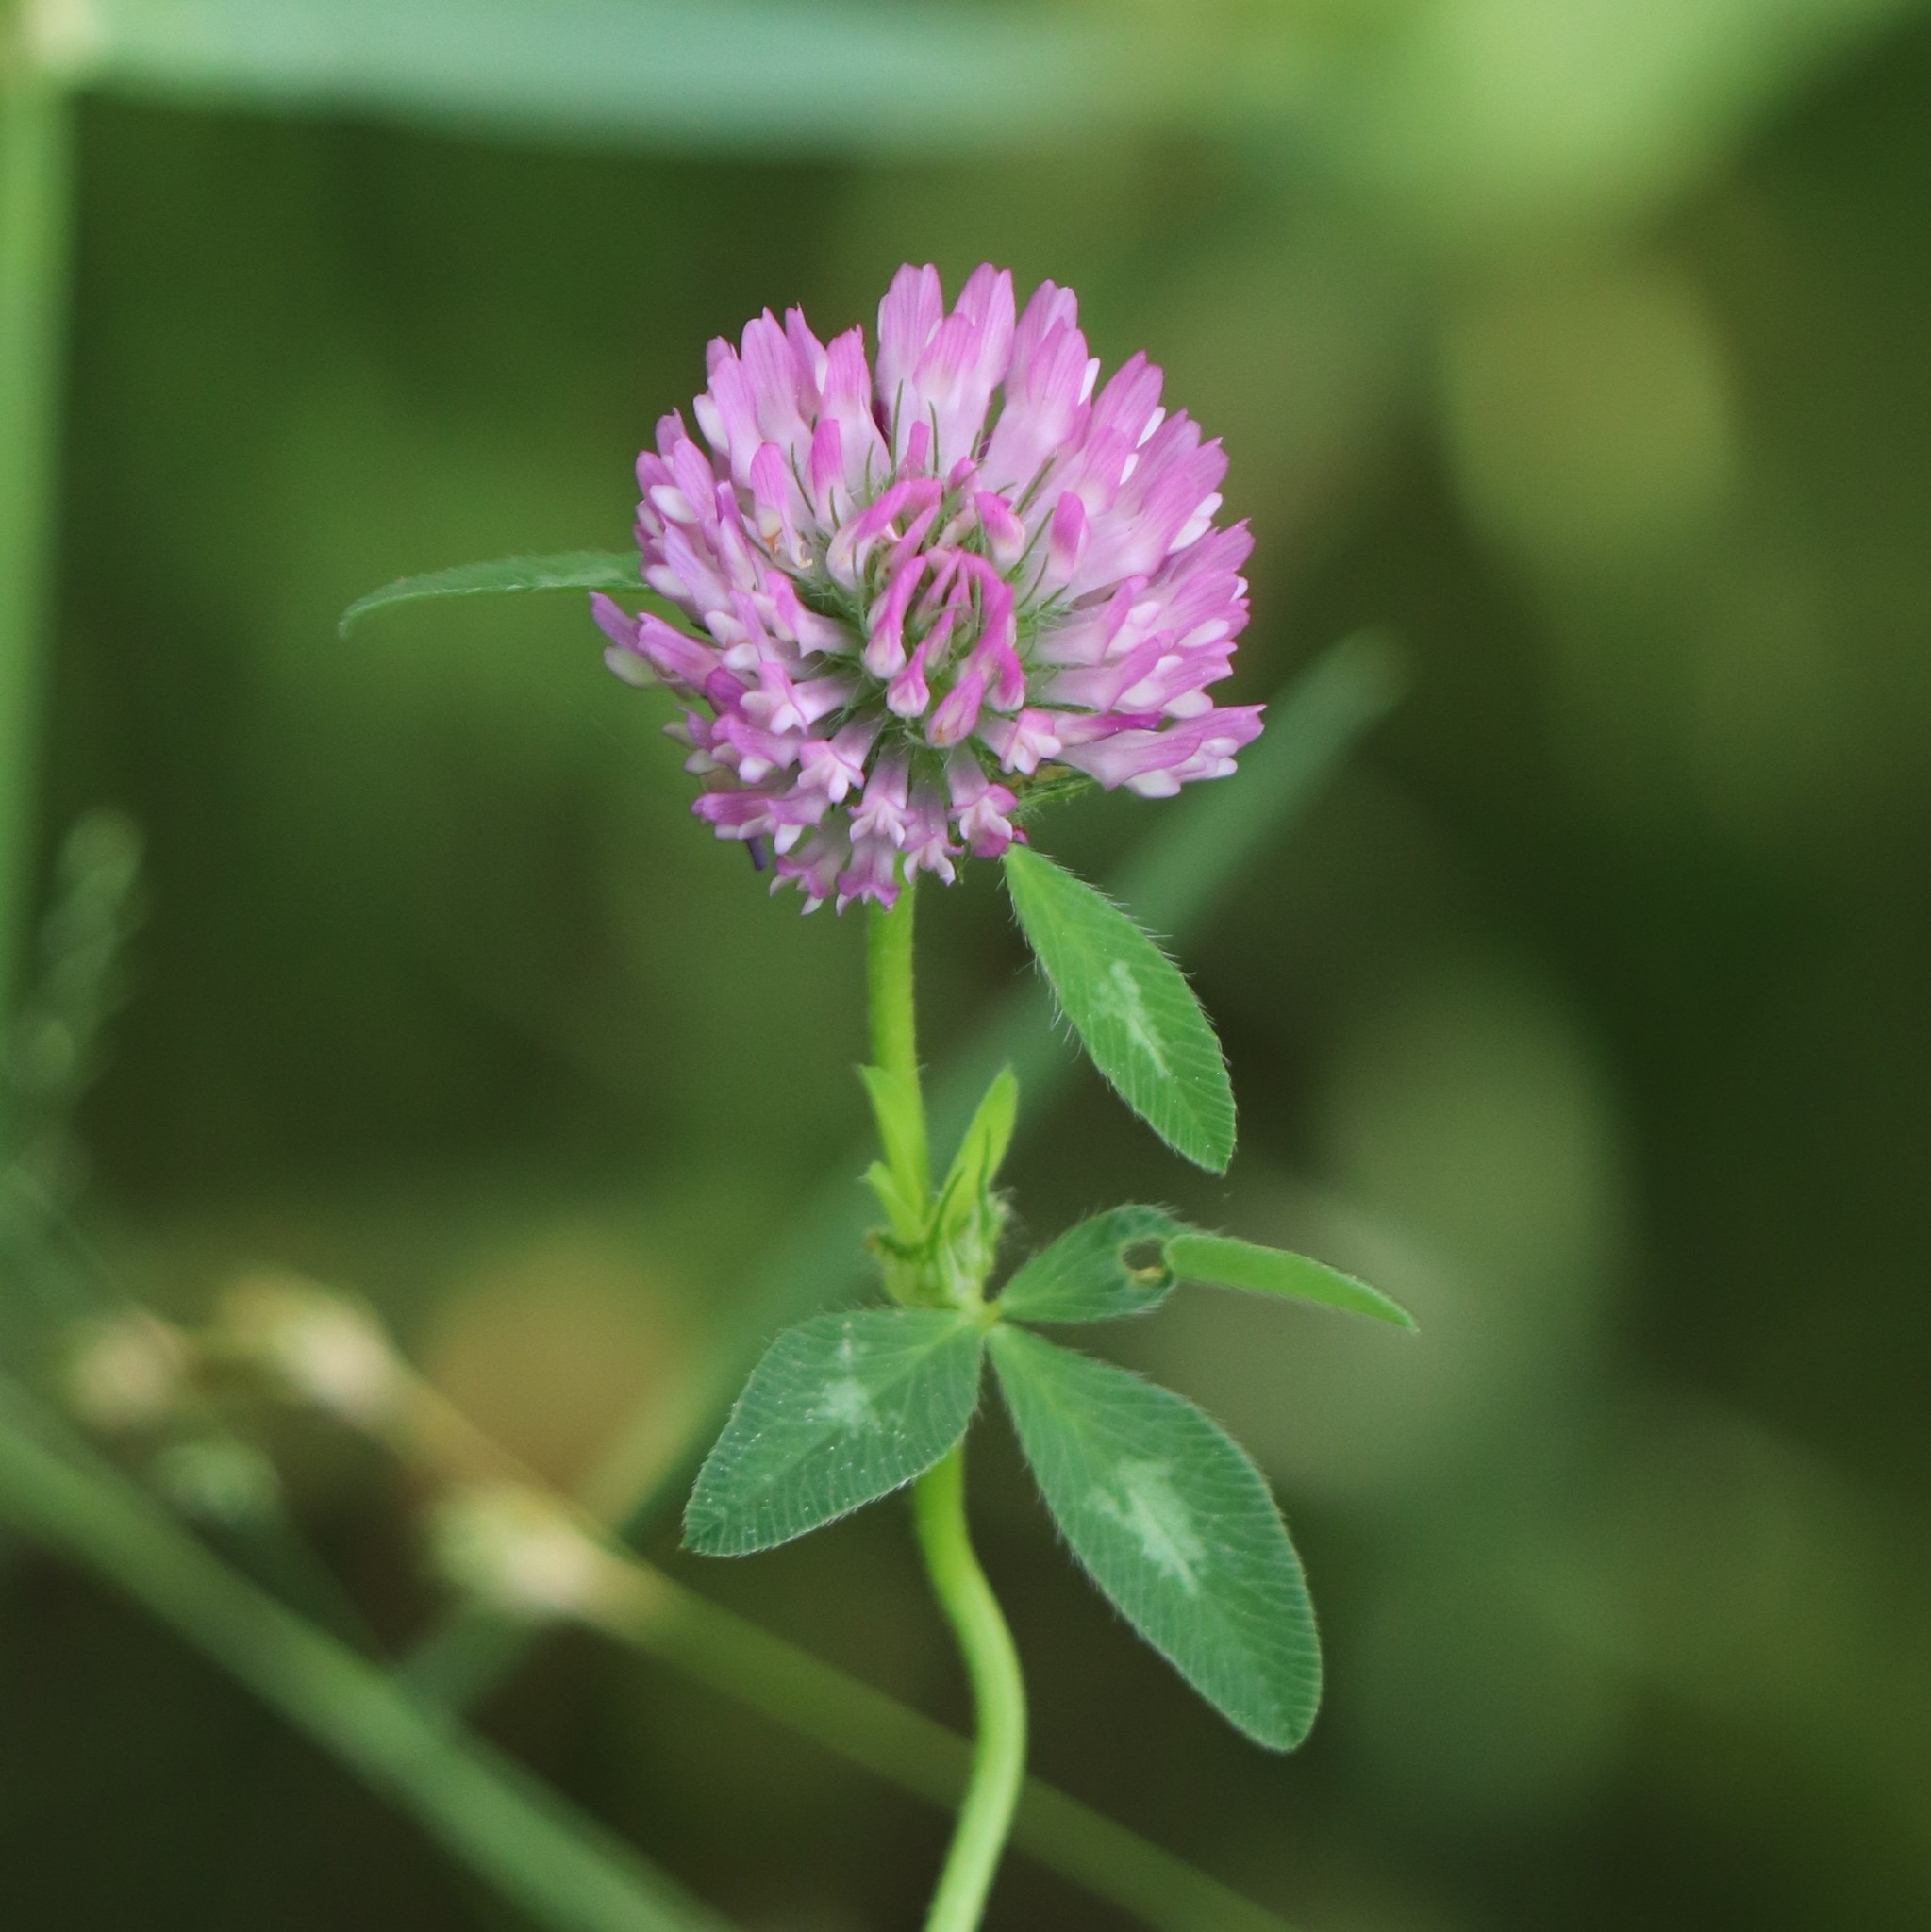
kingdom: Plantae
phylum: Tracheophyta
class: Magnoliopsida
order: Fabales
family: Fabaceae
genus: Trifolium
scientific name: Trifolium pratense
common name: Red clover
